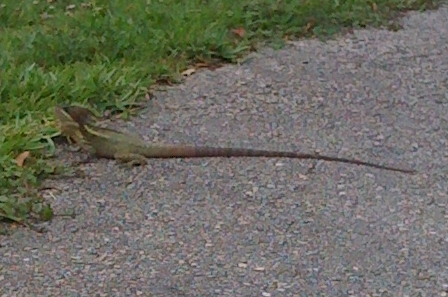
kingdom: Animalia
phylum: Chordata
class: Squamata
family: Corytophanidae
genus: Basiliscus
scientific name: Basiliscus vittatus
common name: Brown basilisk
